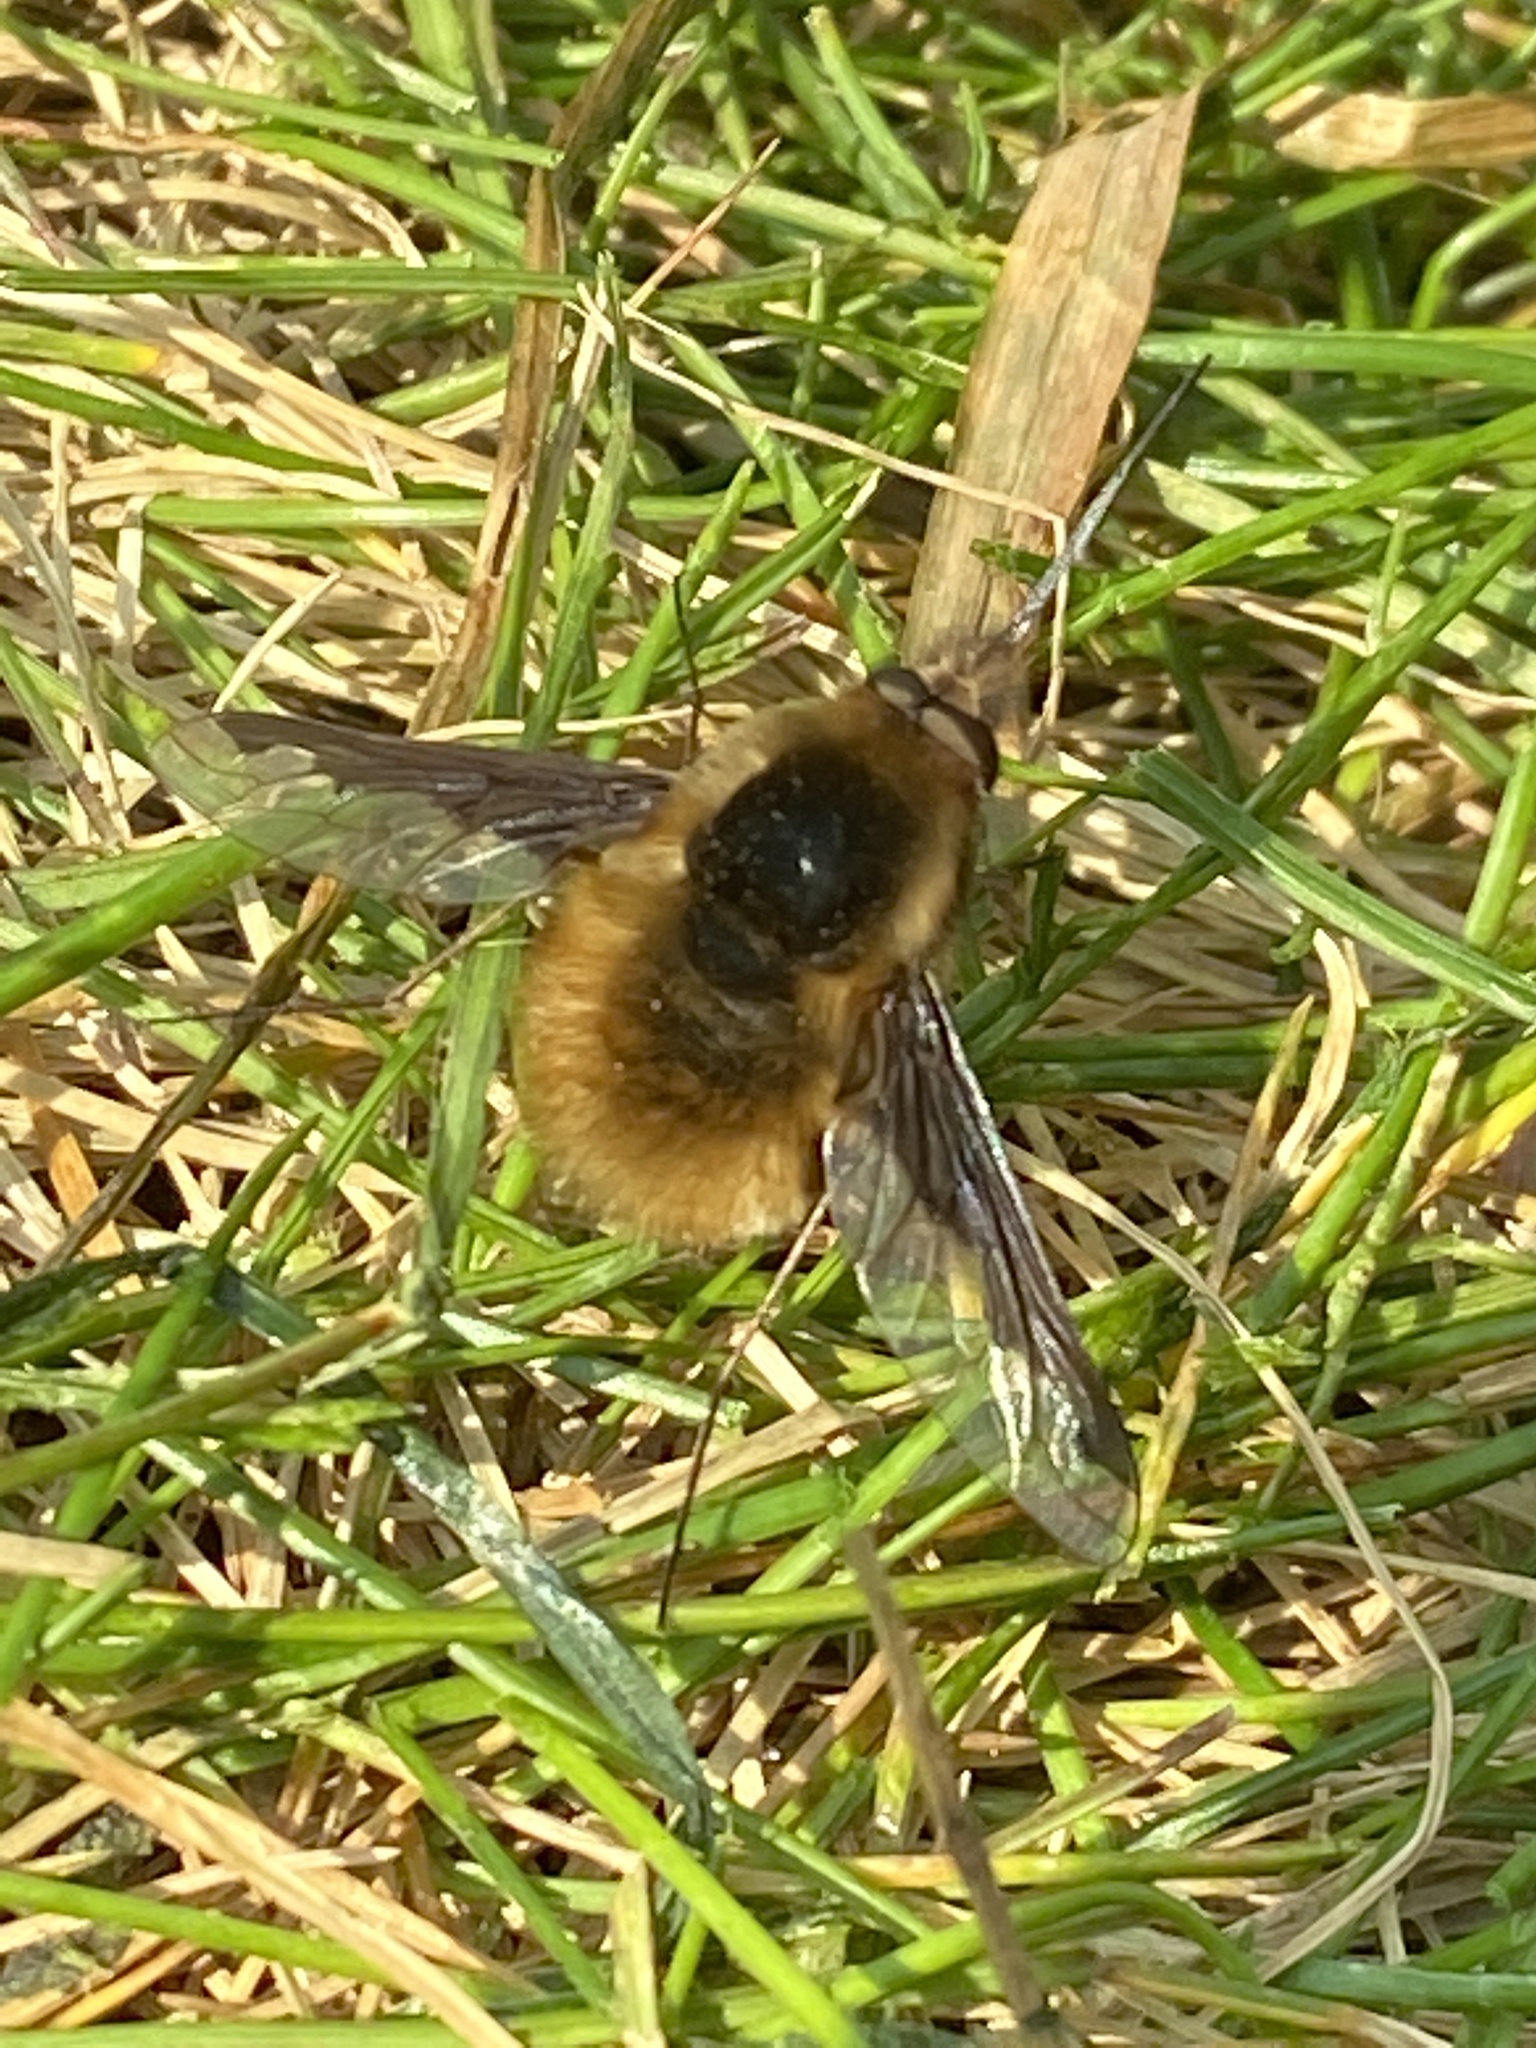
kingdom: Animalia
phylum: Arthropoda
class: Insecta
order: Diptera
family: Bombyliidae
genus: Bombylius
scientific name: Bombylius major
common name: Bee fly
